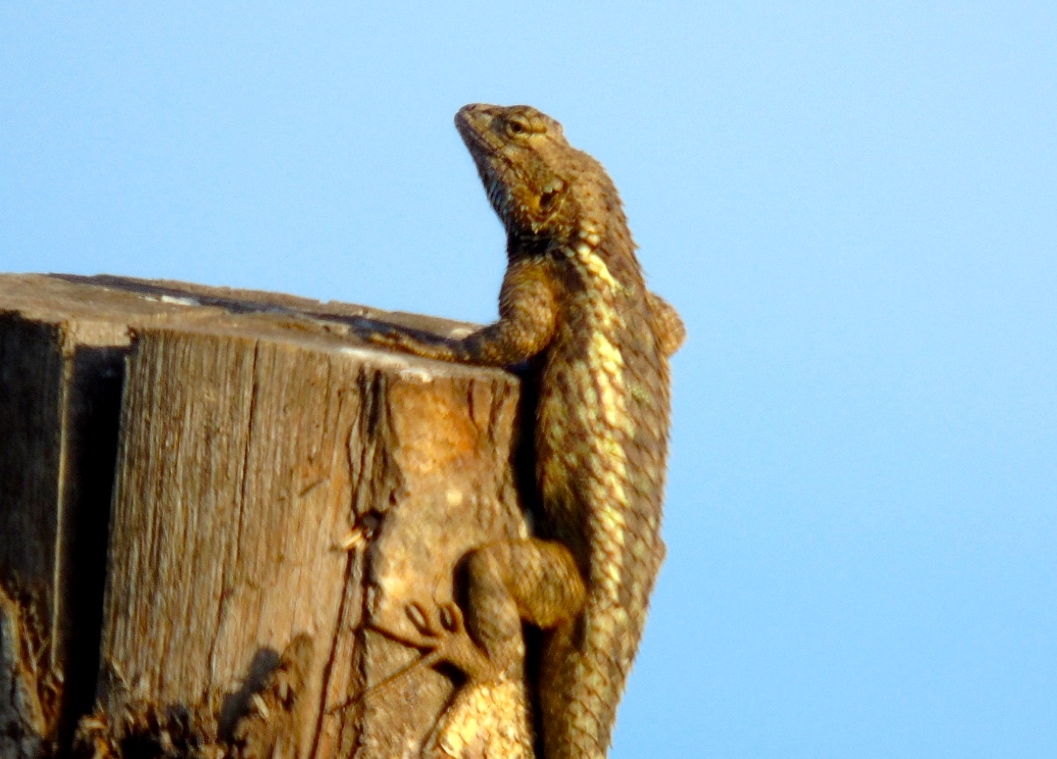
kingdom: Animalia
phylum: Chordata
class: Squamata
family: Phrynosomatidae
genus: Sceloporus
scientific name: Sceloporus clarkii
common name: Clark's spiny lizard
